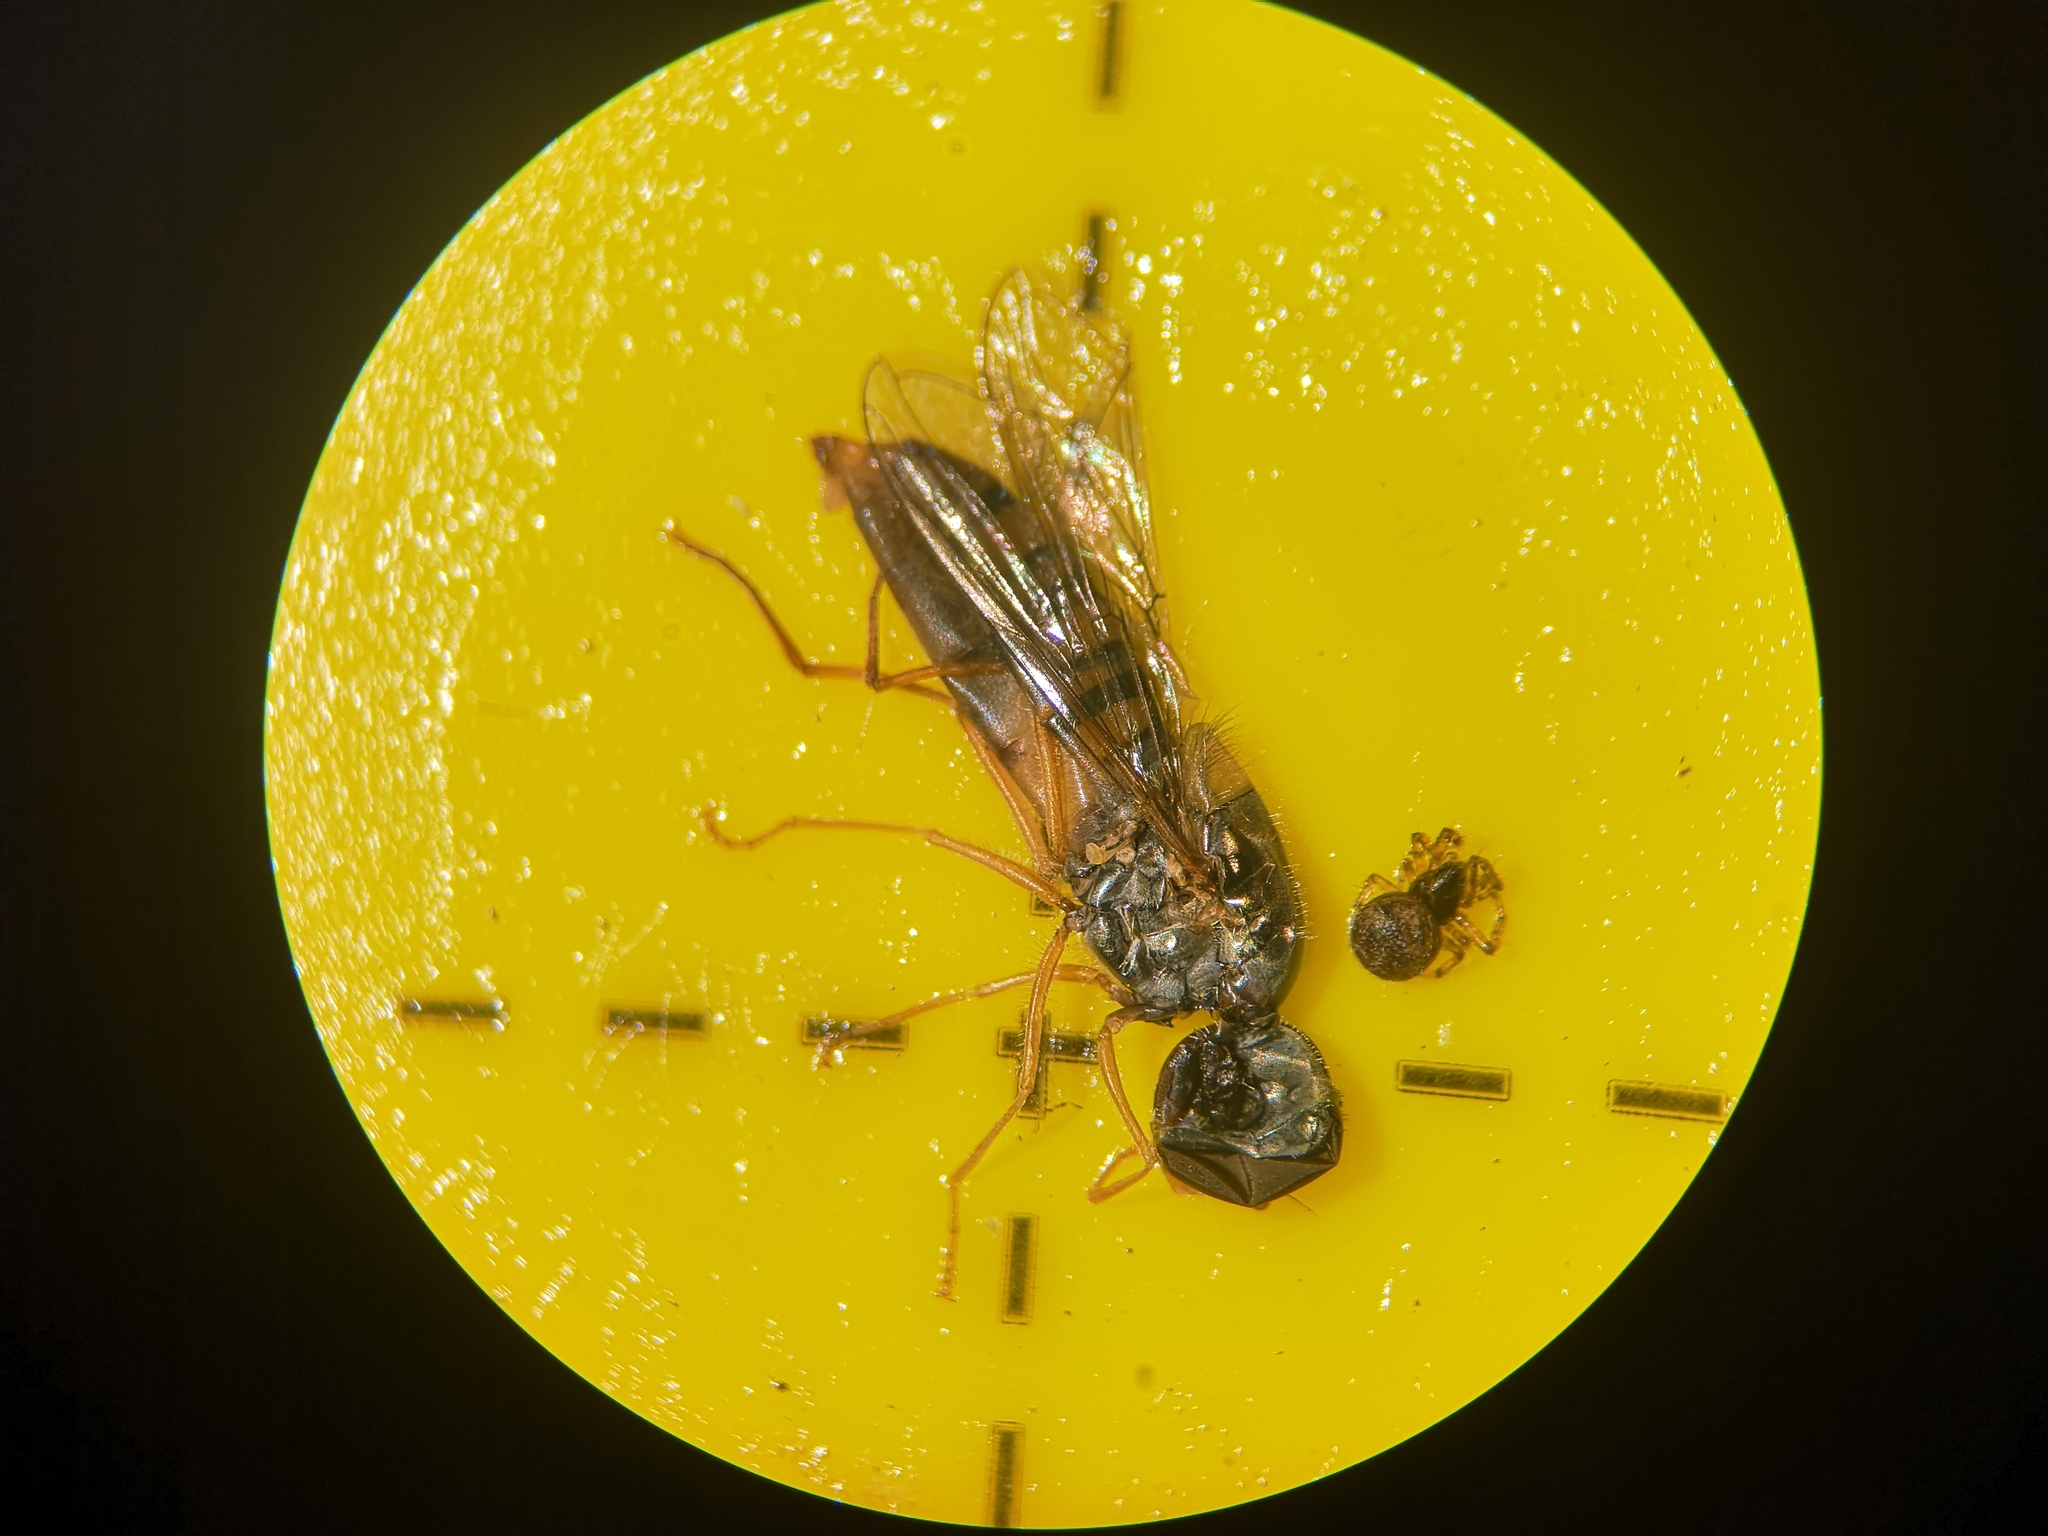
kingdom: Animalia
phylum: Arthropoda
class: Insecta
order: Diptera
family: Syrphidae
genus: Episyrphus
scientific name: Episyrphus balteatus
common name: Marmalade hoverfly
